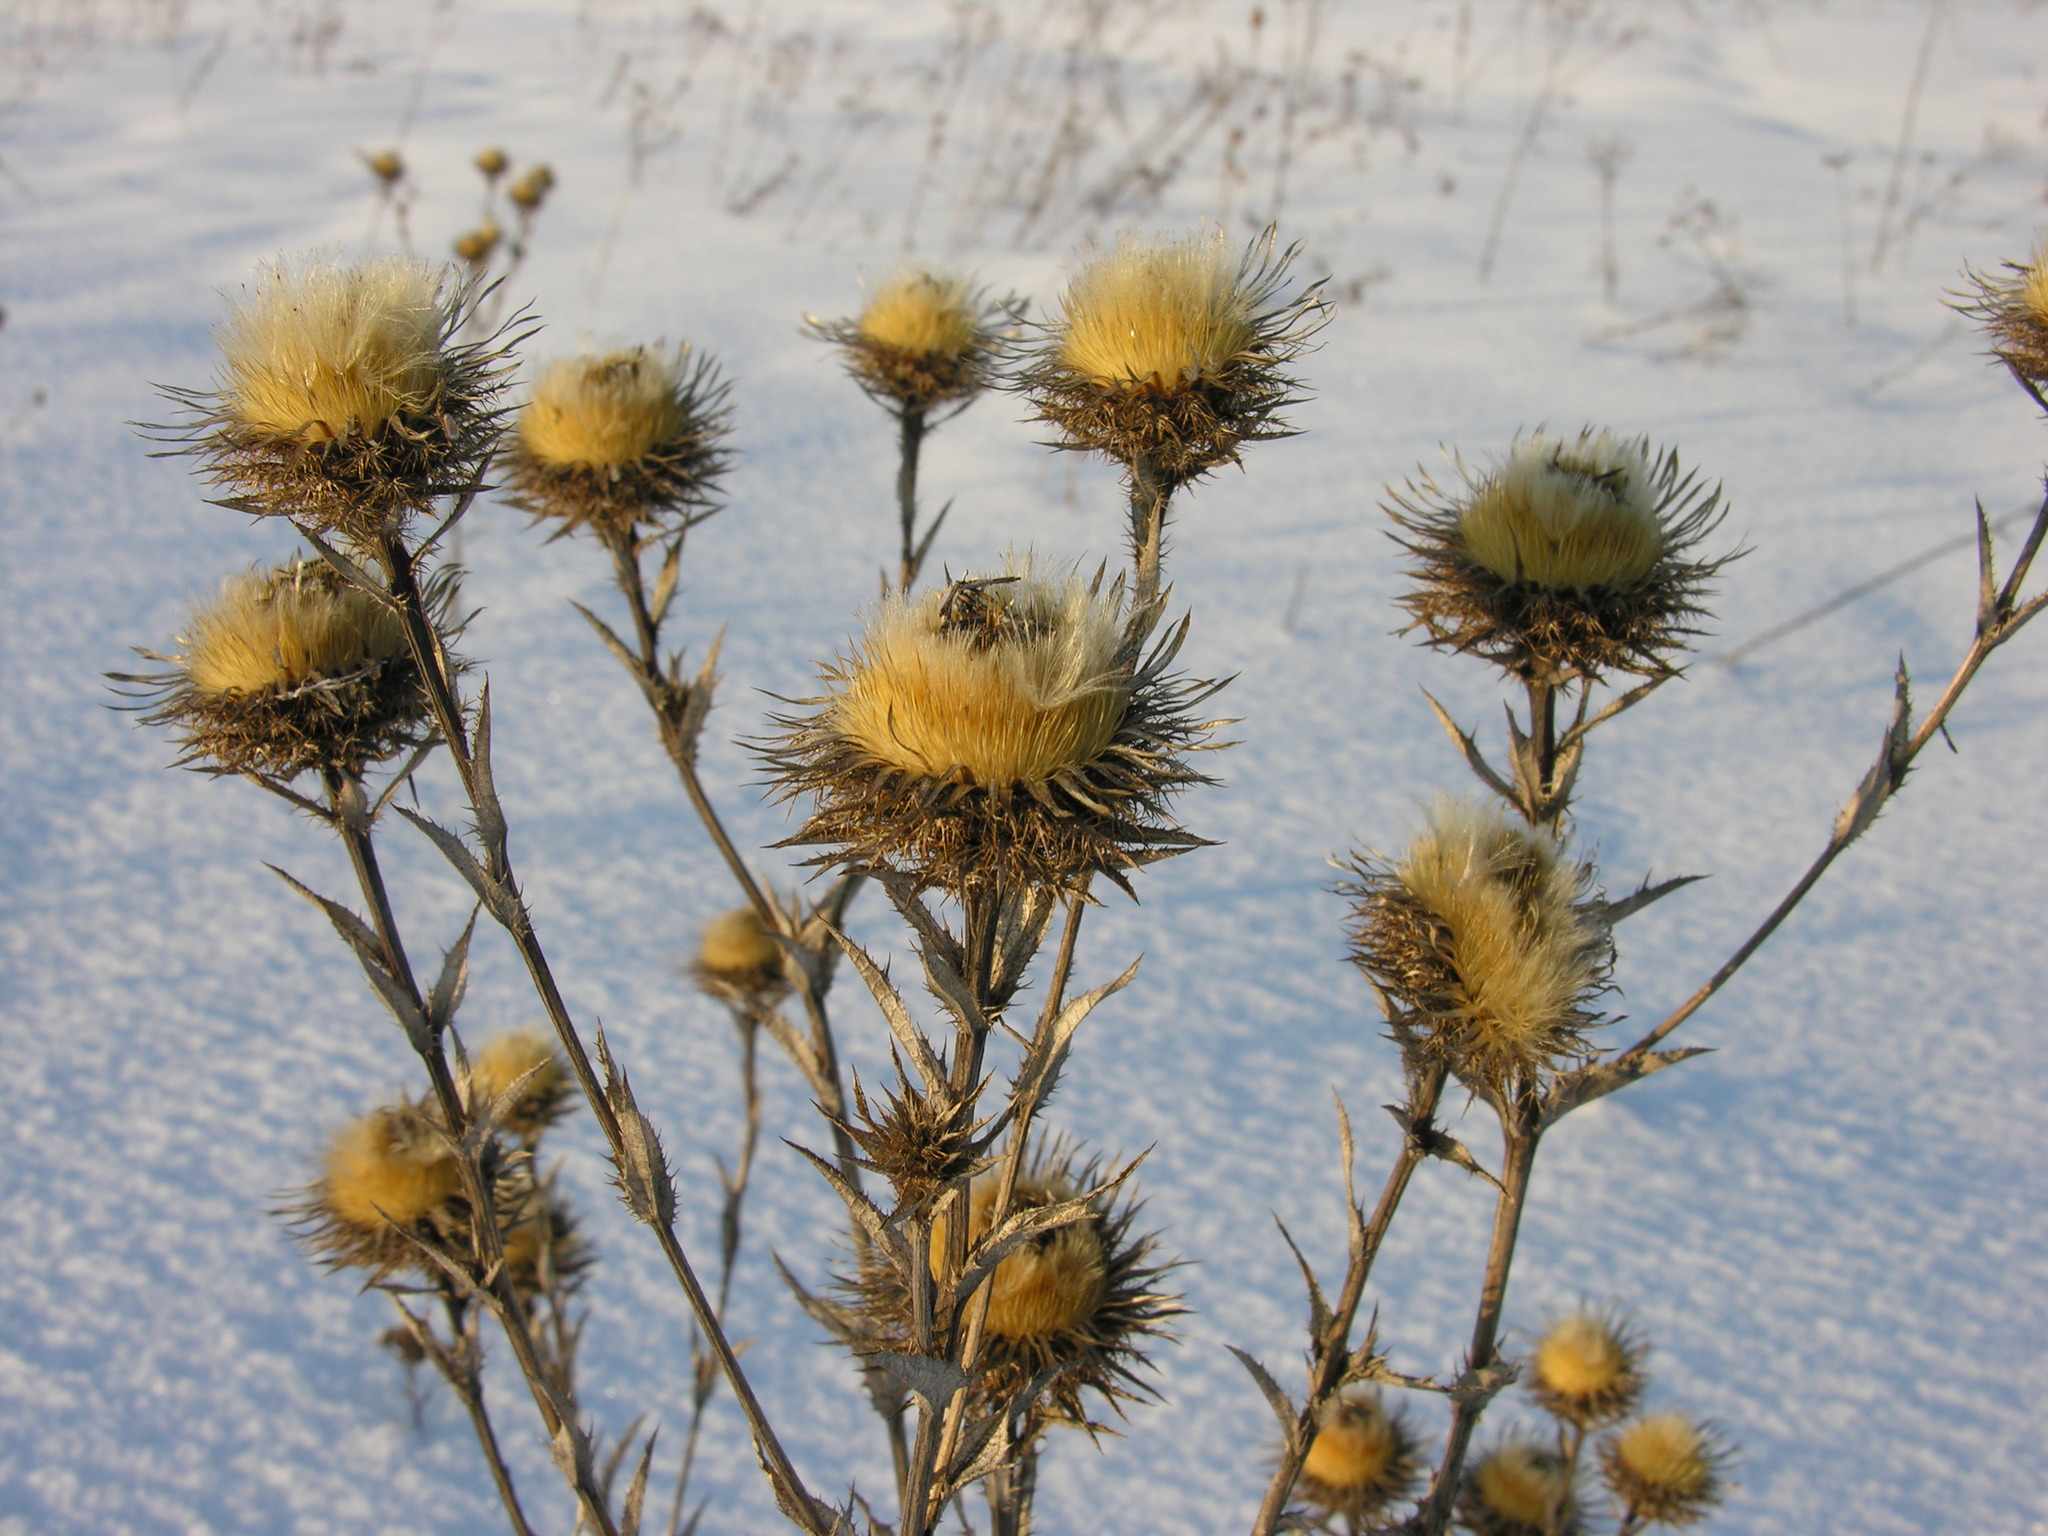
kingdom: Plantae
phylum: Tracheophyta
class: Magnoliopsida
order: Asterales
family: Asteraceae
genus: Carlina
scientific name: Carlina biebersteinii
